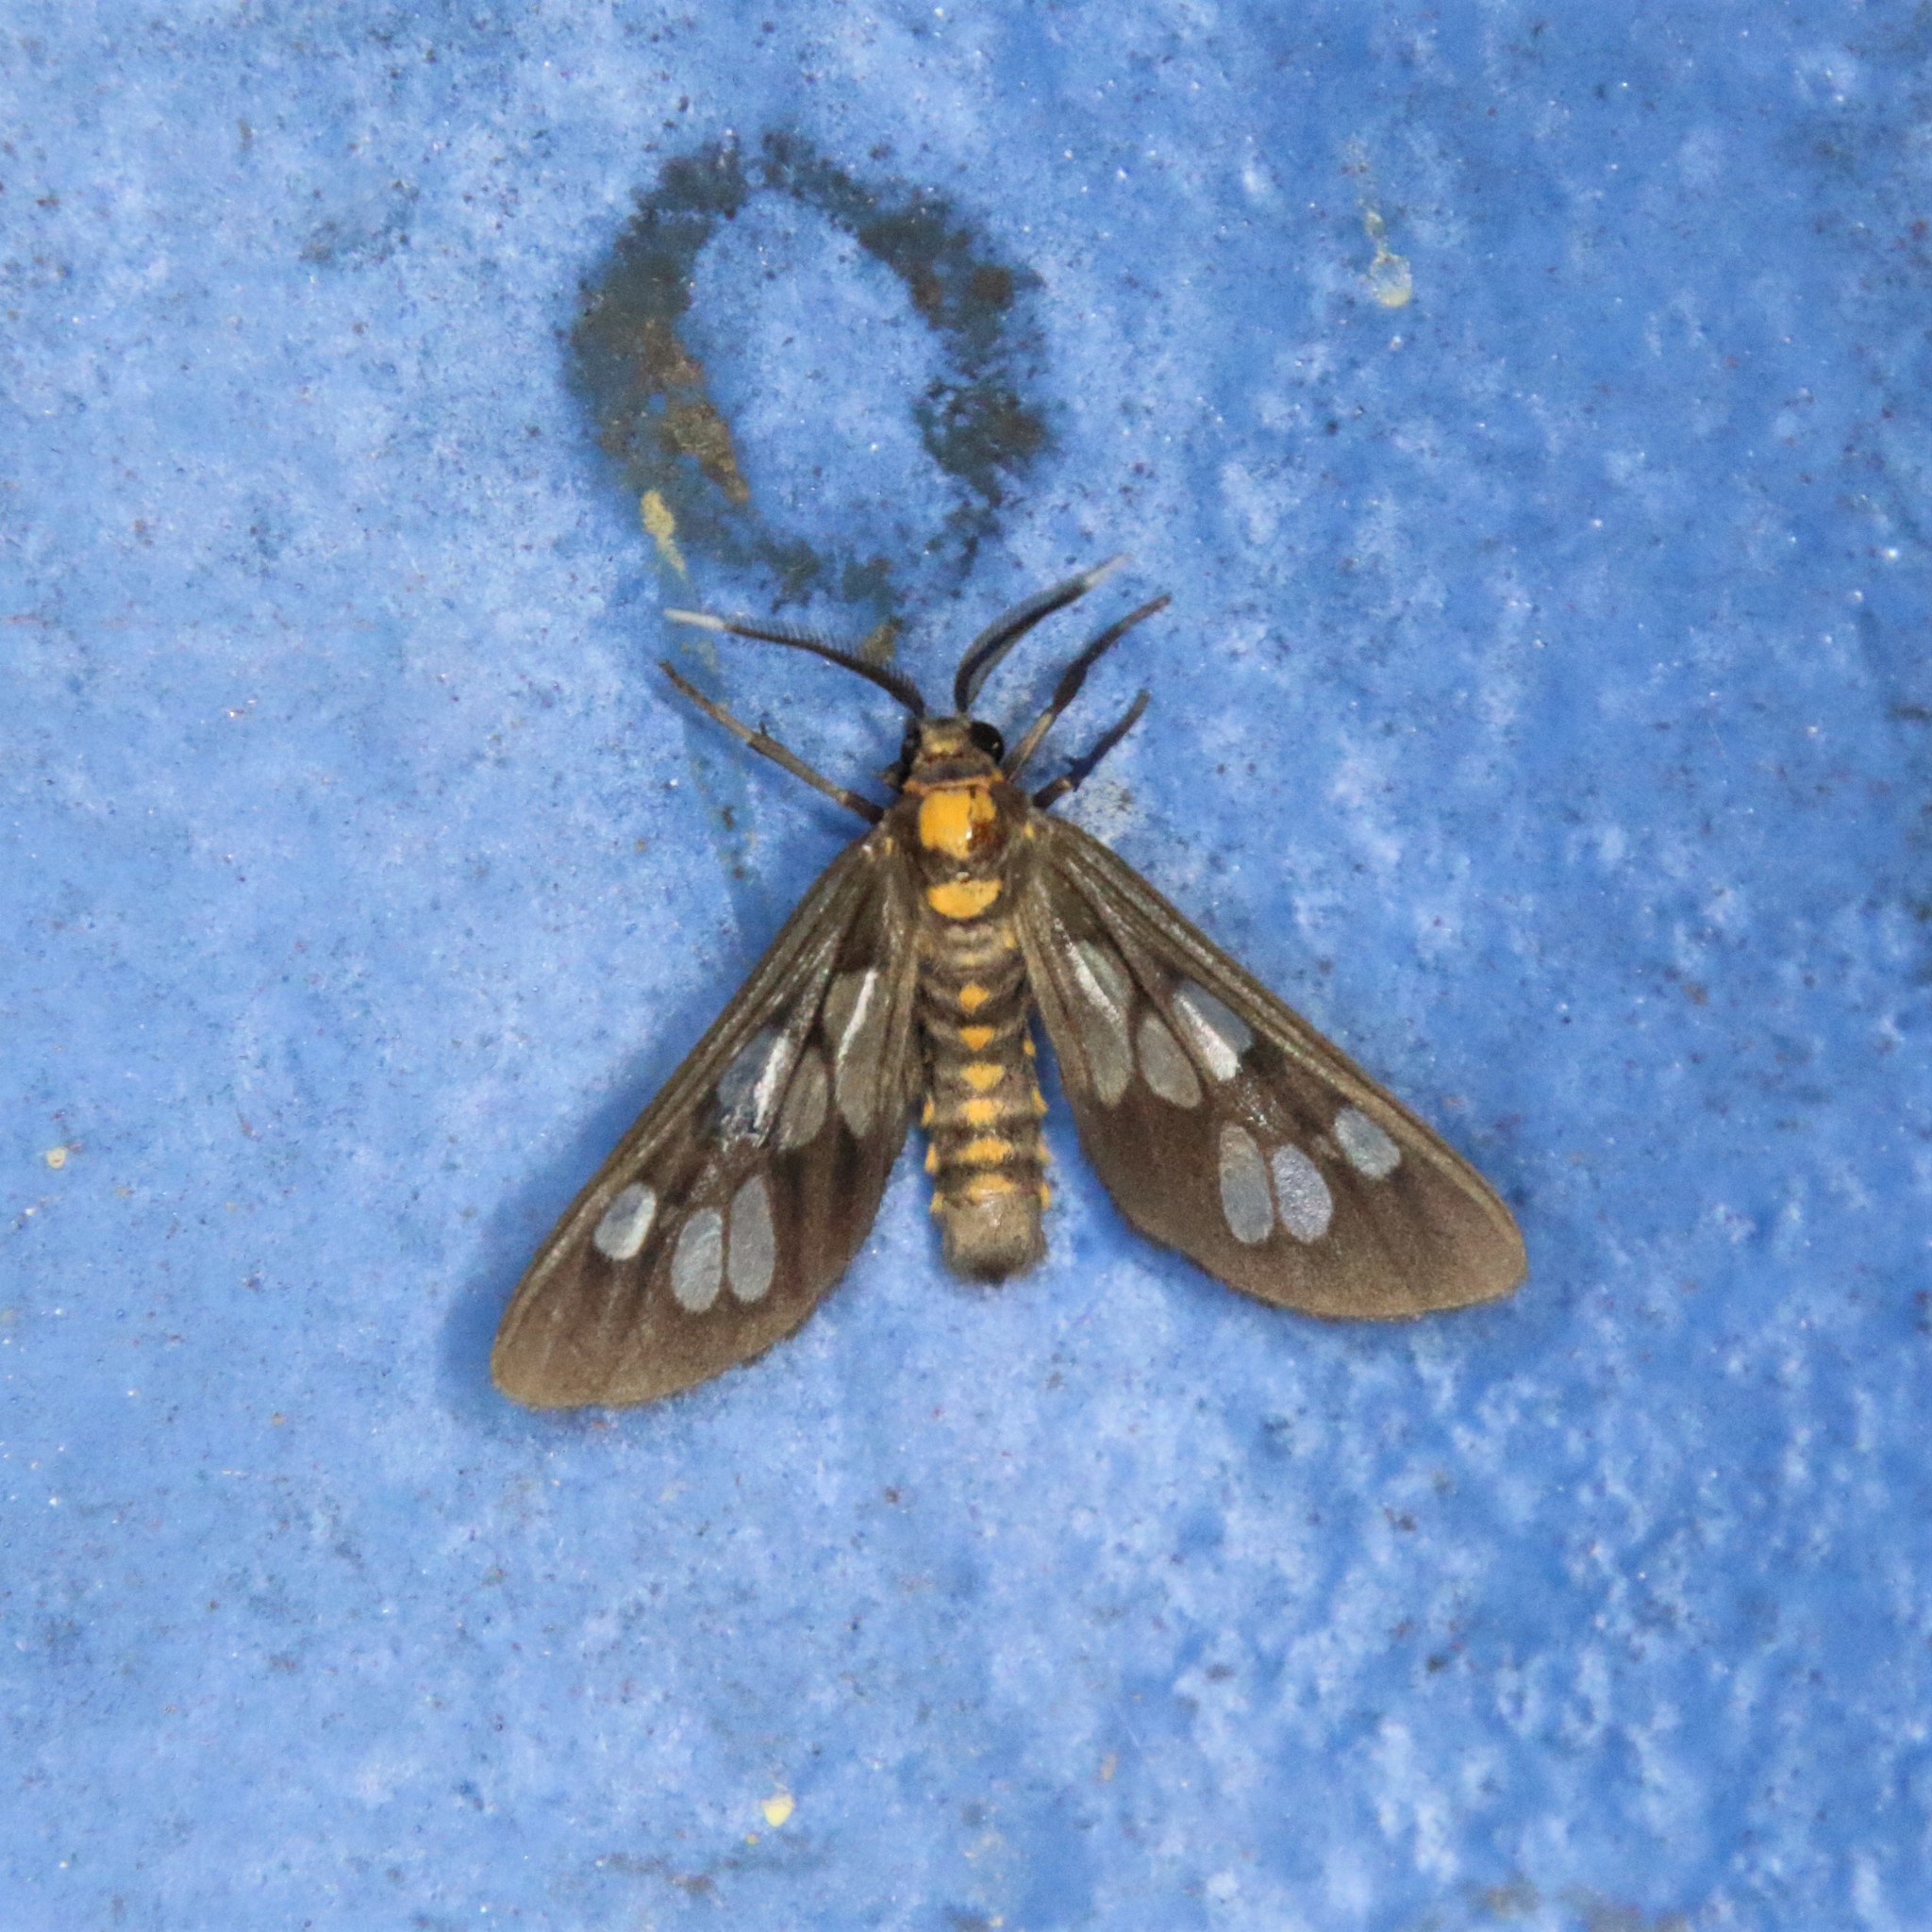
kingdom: Animalia
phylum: Arthropoda
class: Insecta
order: Lepidoptera
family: Erebidae
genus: Eressa
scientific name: Eressa confinis
